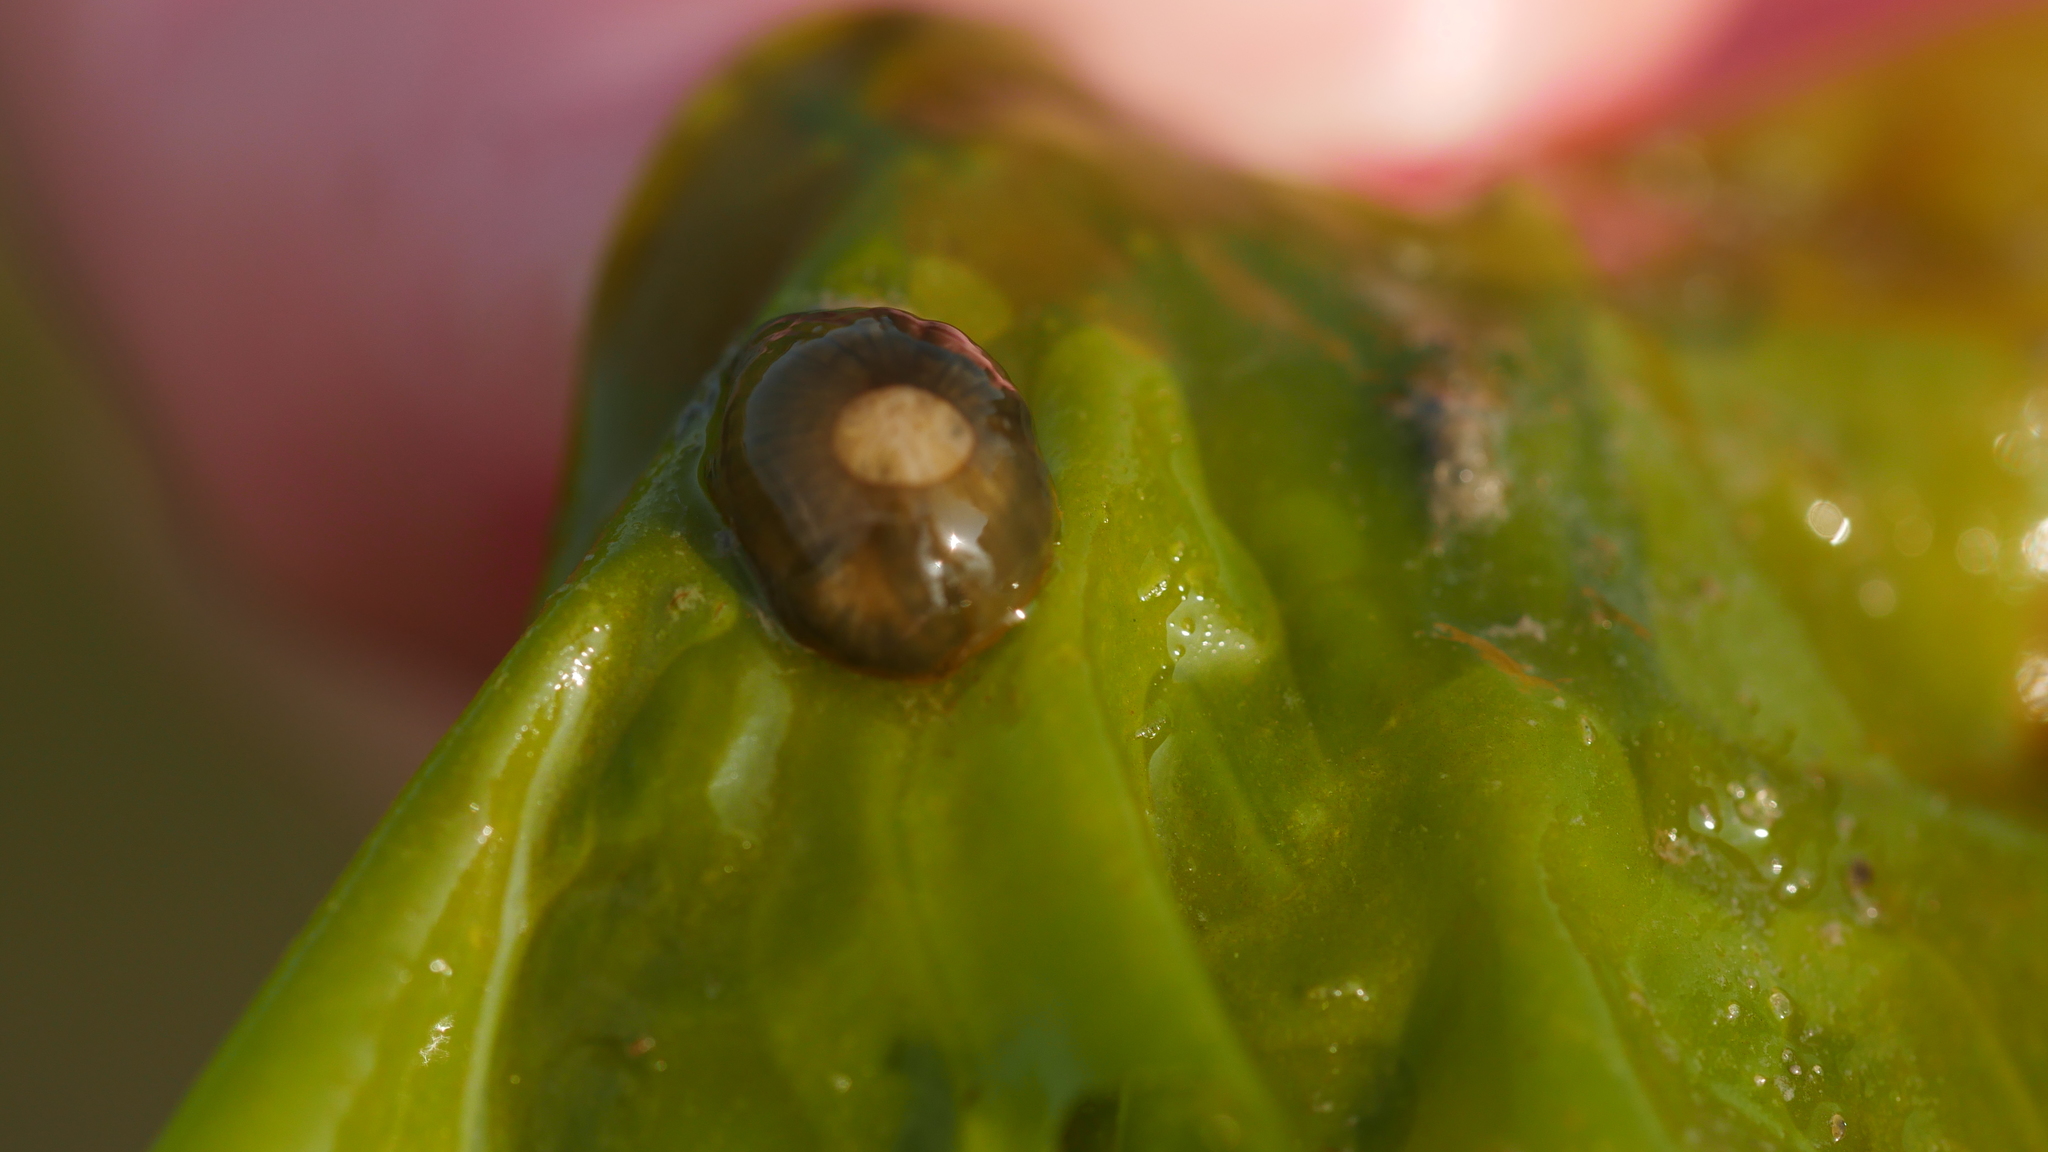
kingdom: Animalia
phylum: Cnidaria
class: Anthozoa
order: Actiniaria
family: Diadumenidae
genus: Diadumene
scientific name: Diadumene lineata
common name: Orange-striped anemone
